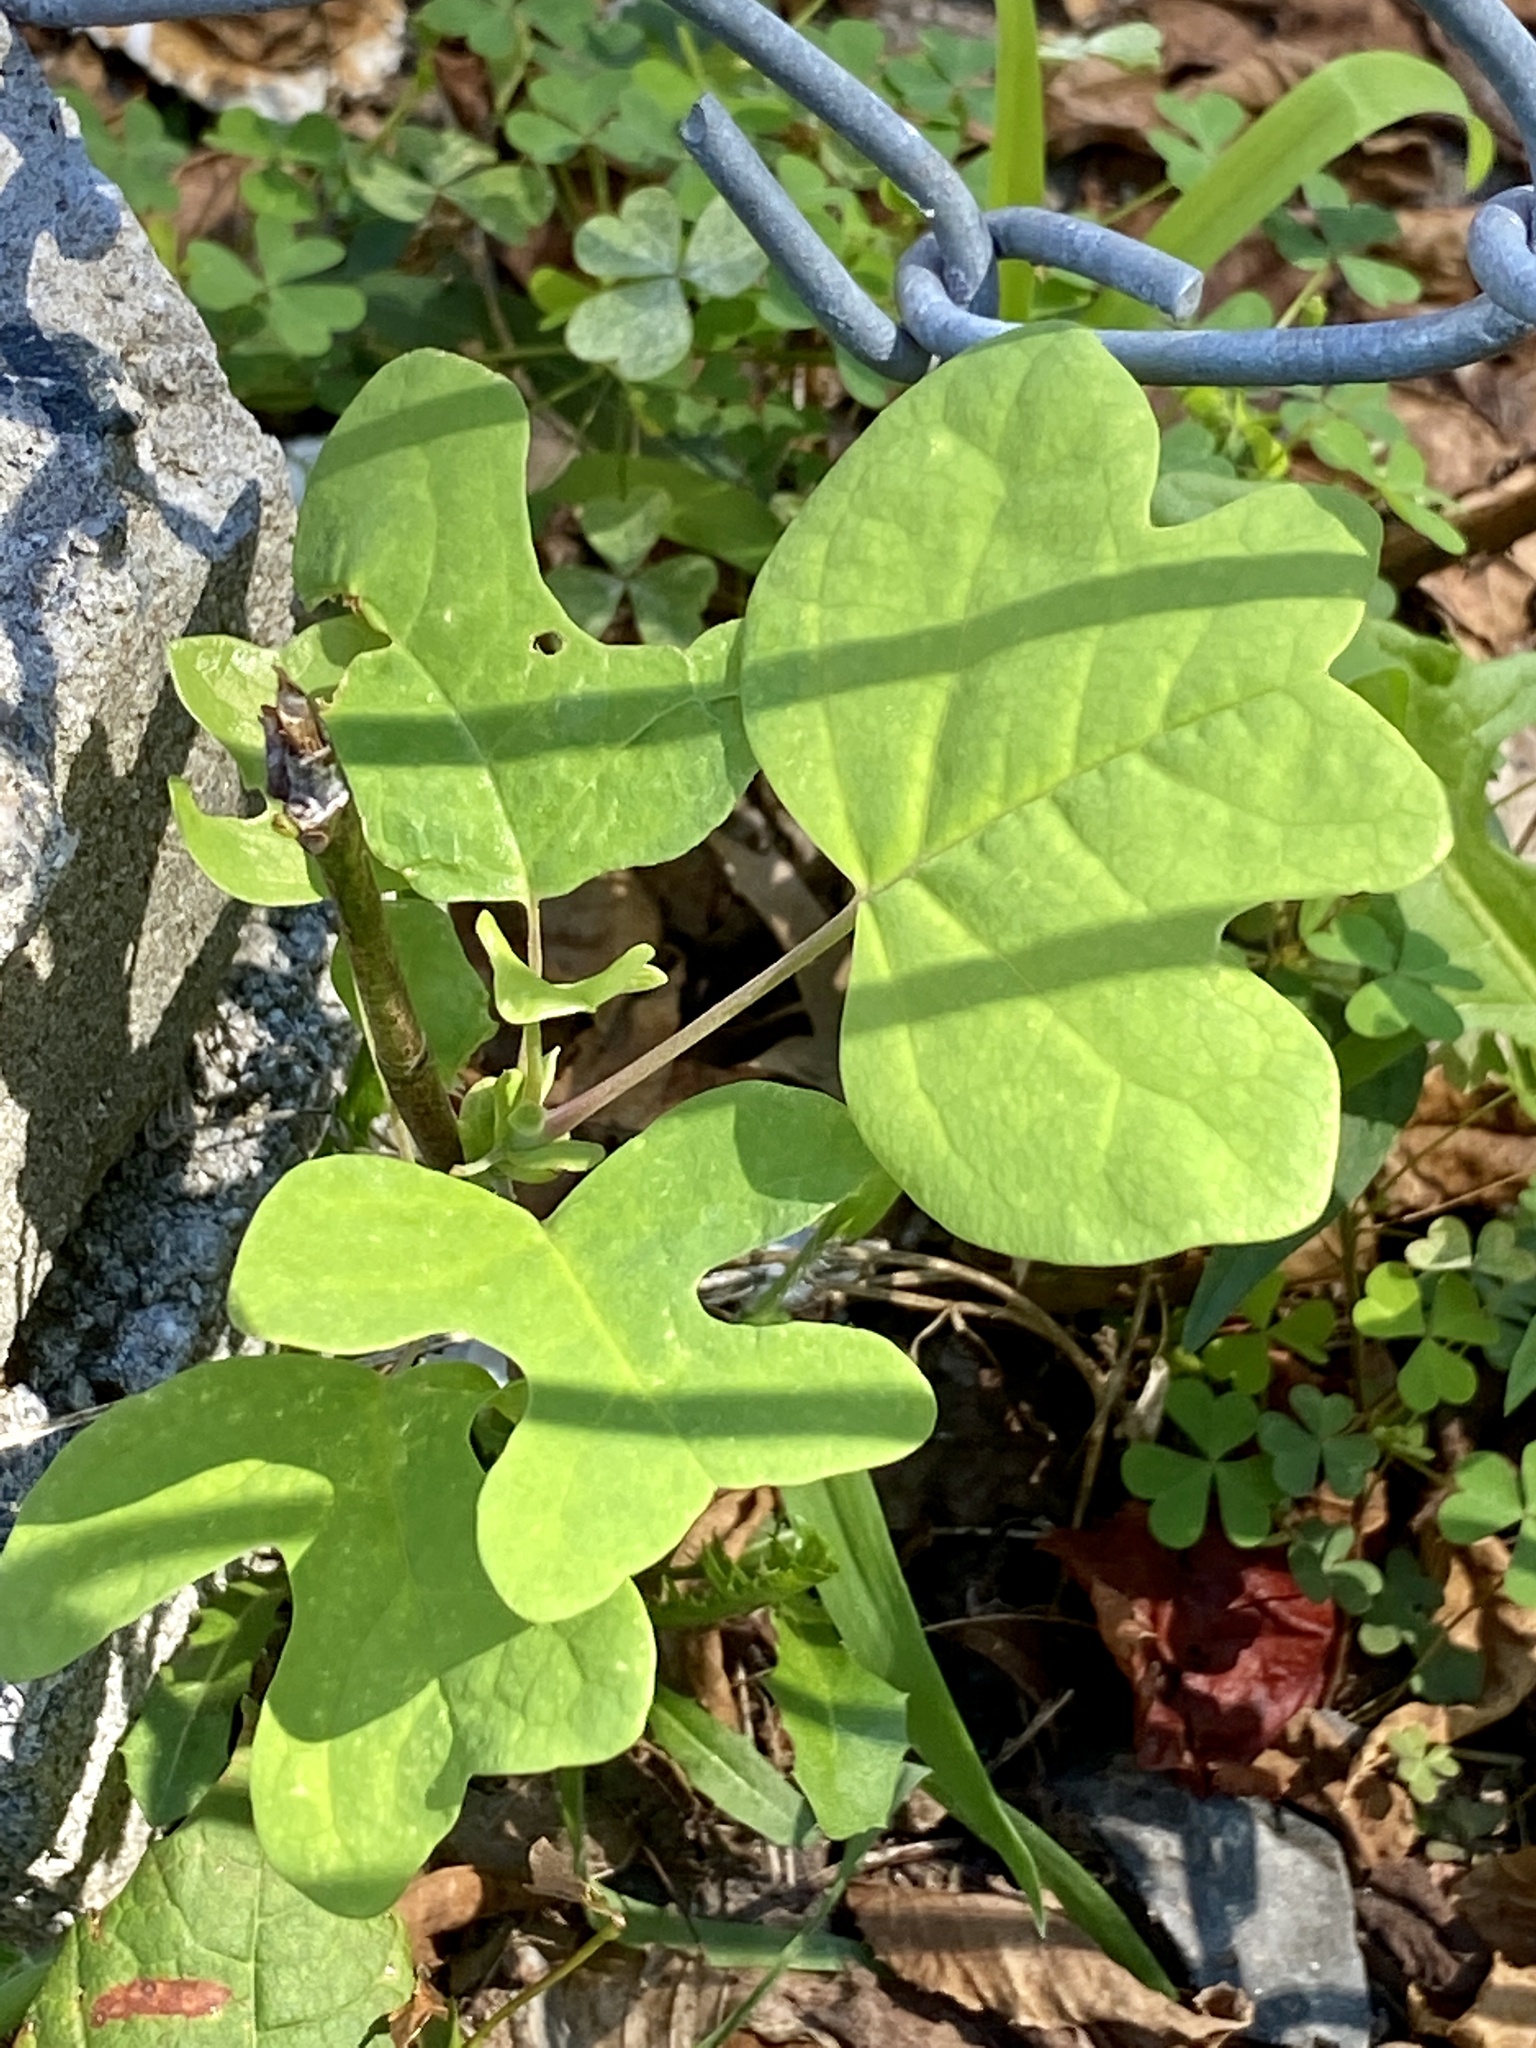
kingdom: Plantae
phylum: Tracheophyta
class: Magnoliopsida
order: Magnoliales
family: Magnoliaceae
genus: Liriodendron
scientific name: Liriodendron tulipifera
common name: Tulip tree
